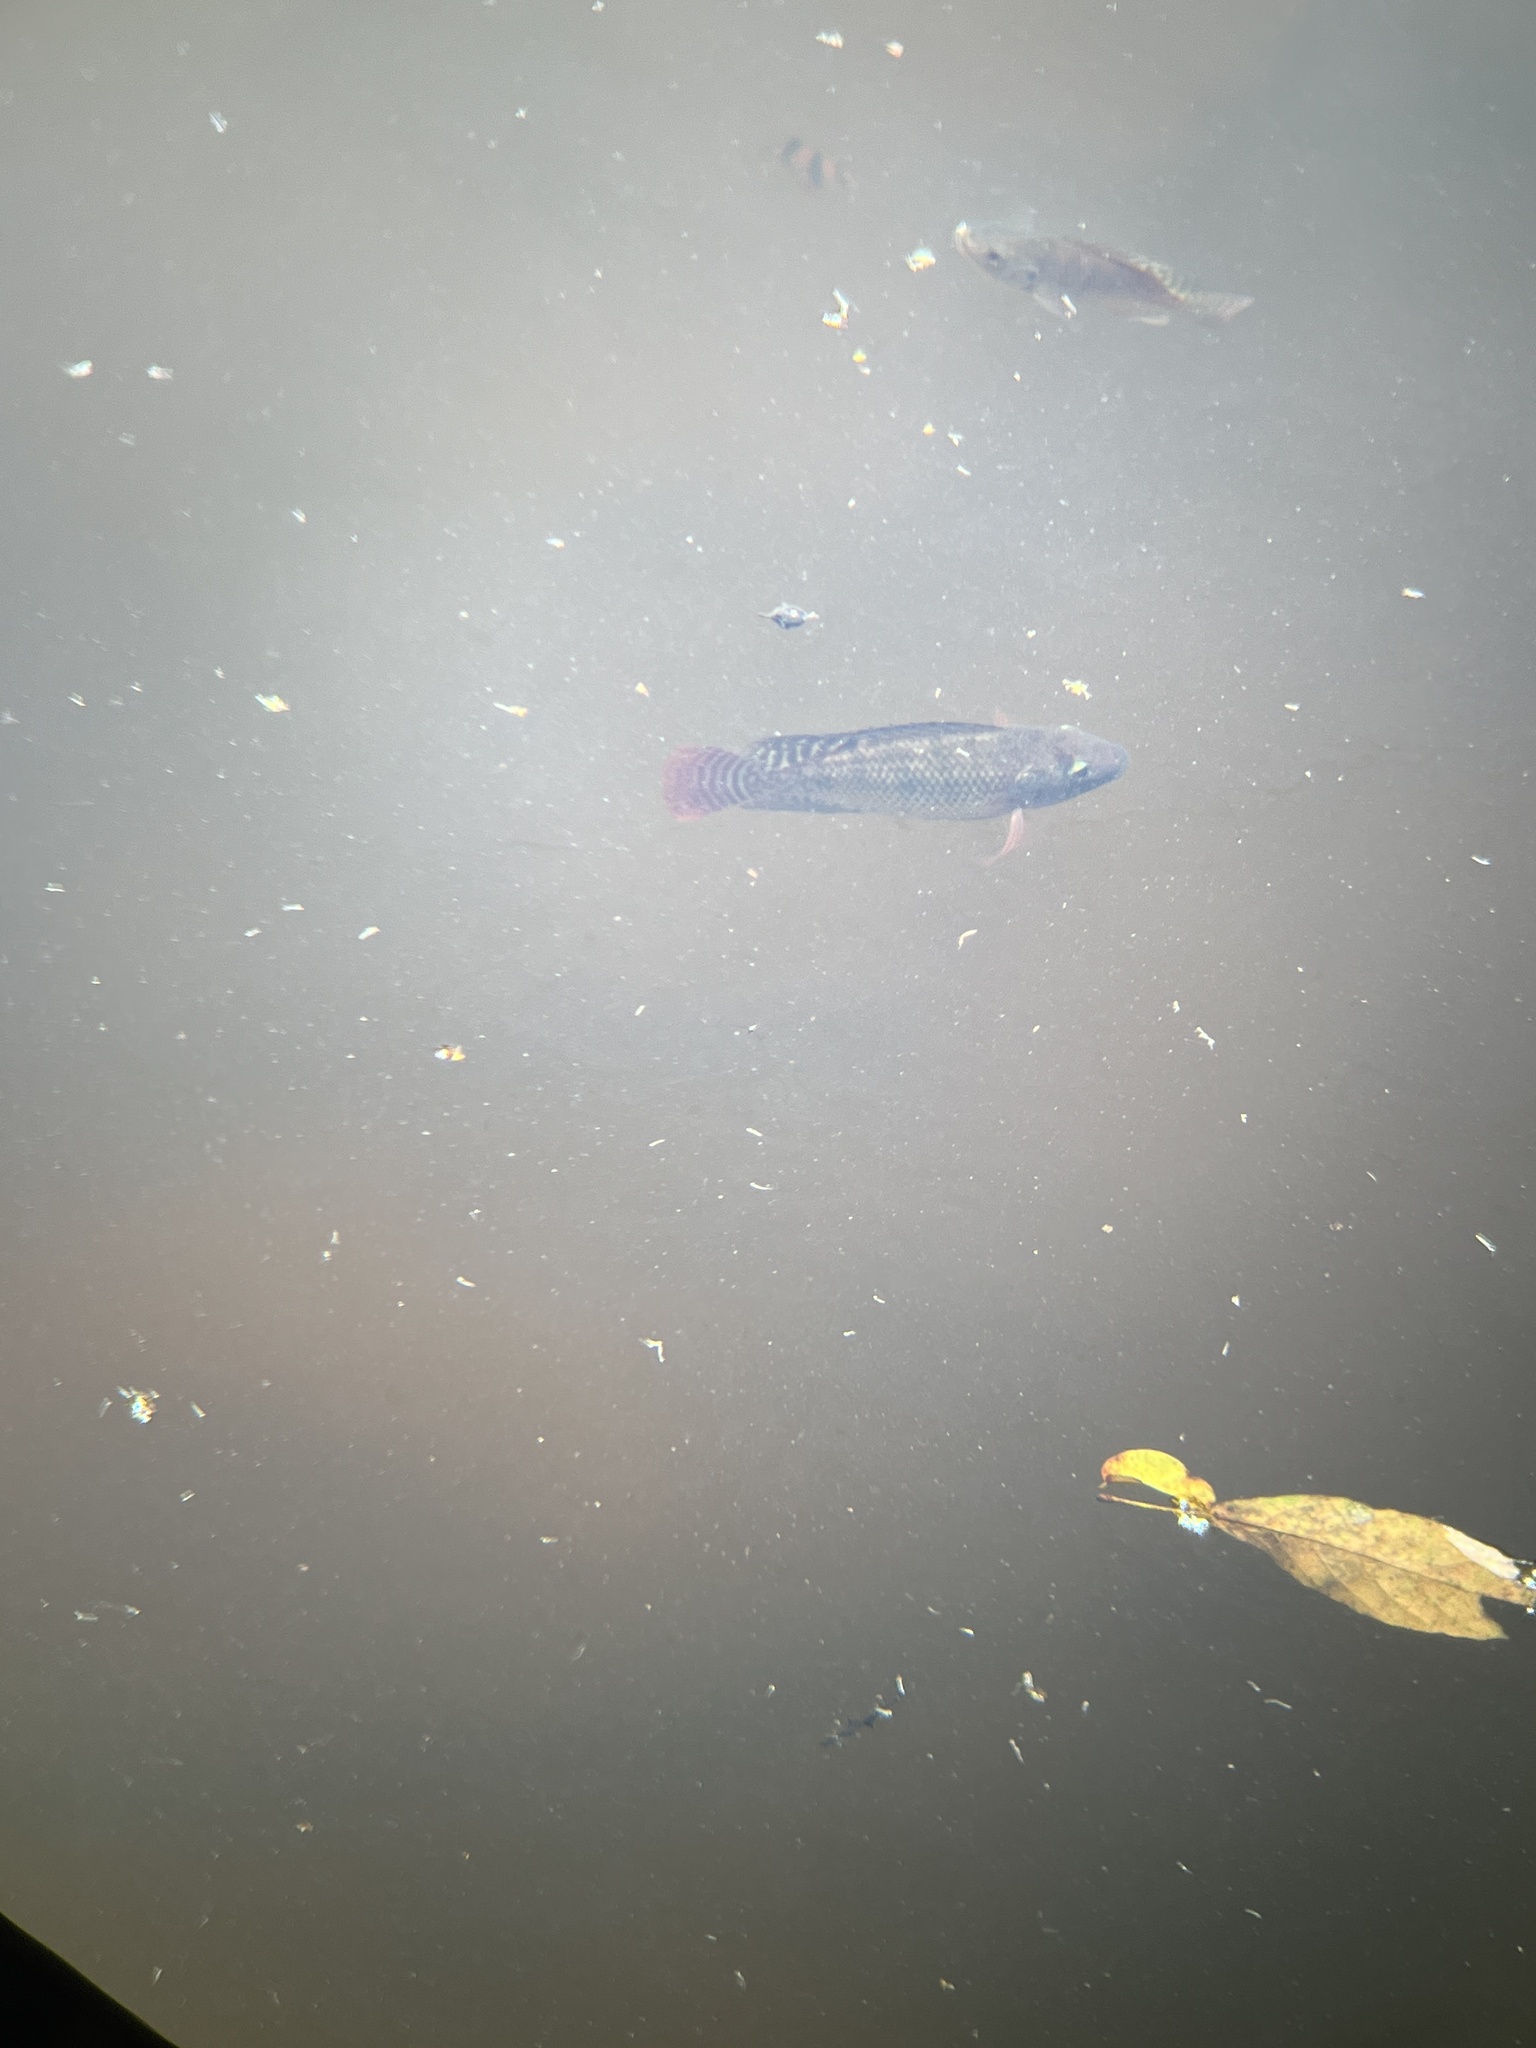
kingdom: Animalia
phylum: Chordata
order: Perciformes
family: Cichlidae
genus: Oreochromis
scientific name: Oreochromis niloticus
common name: Nile tilapia
